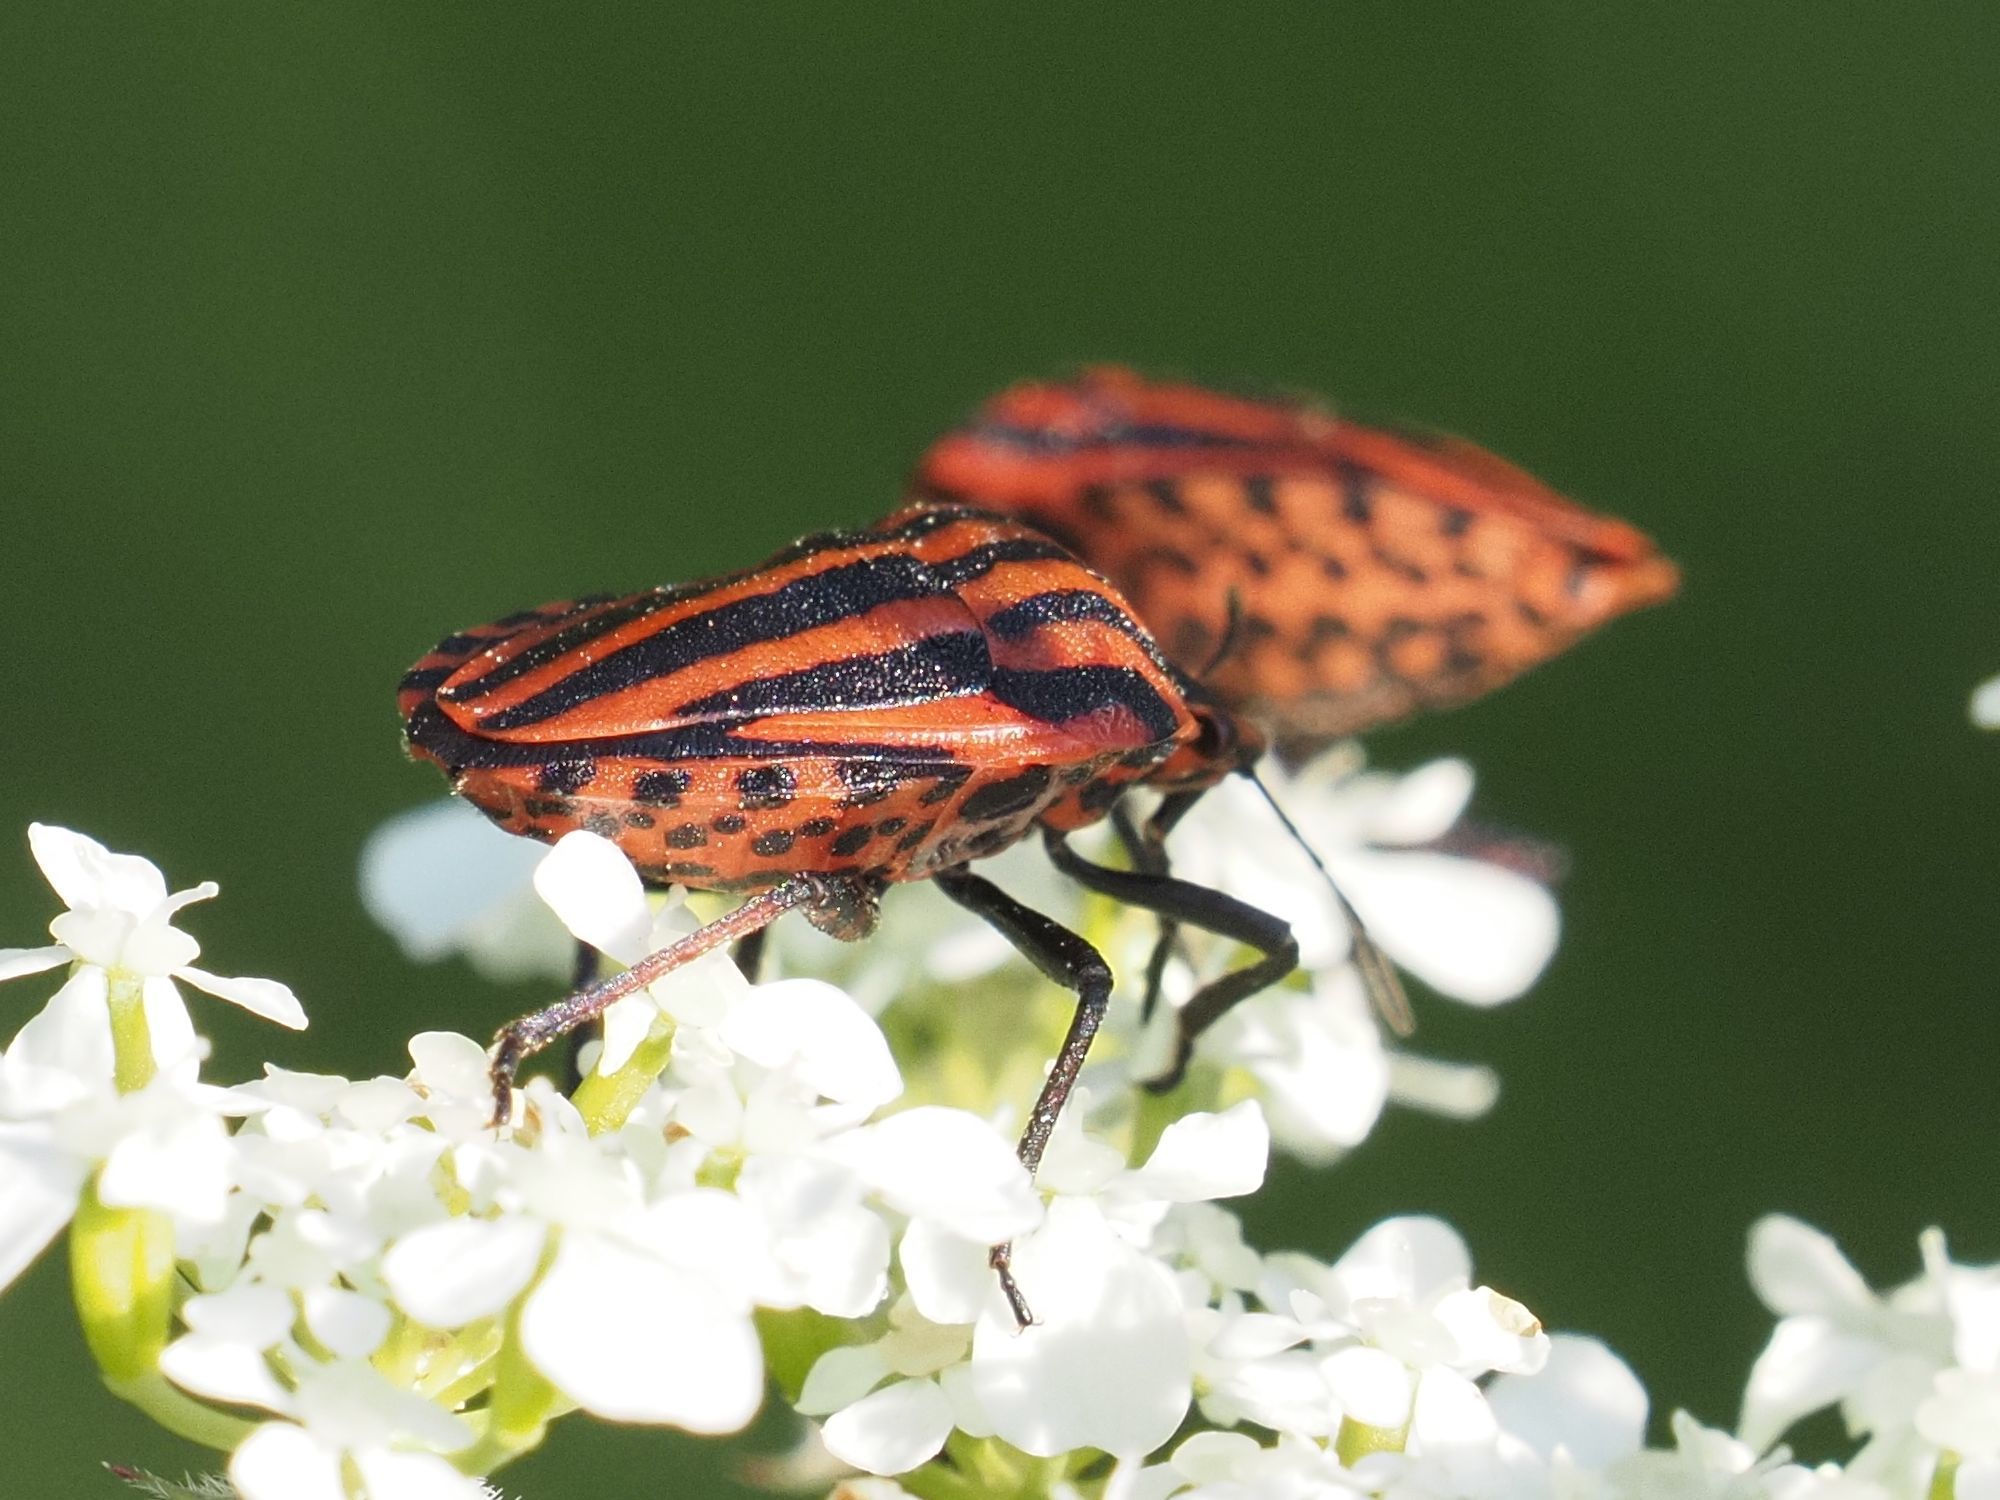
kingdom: Animalia
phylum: Arthropoda
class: Insecta
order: Hemiptera
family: Pentatomidae
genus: Graphosoma
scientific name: Graphosoma italicum
